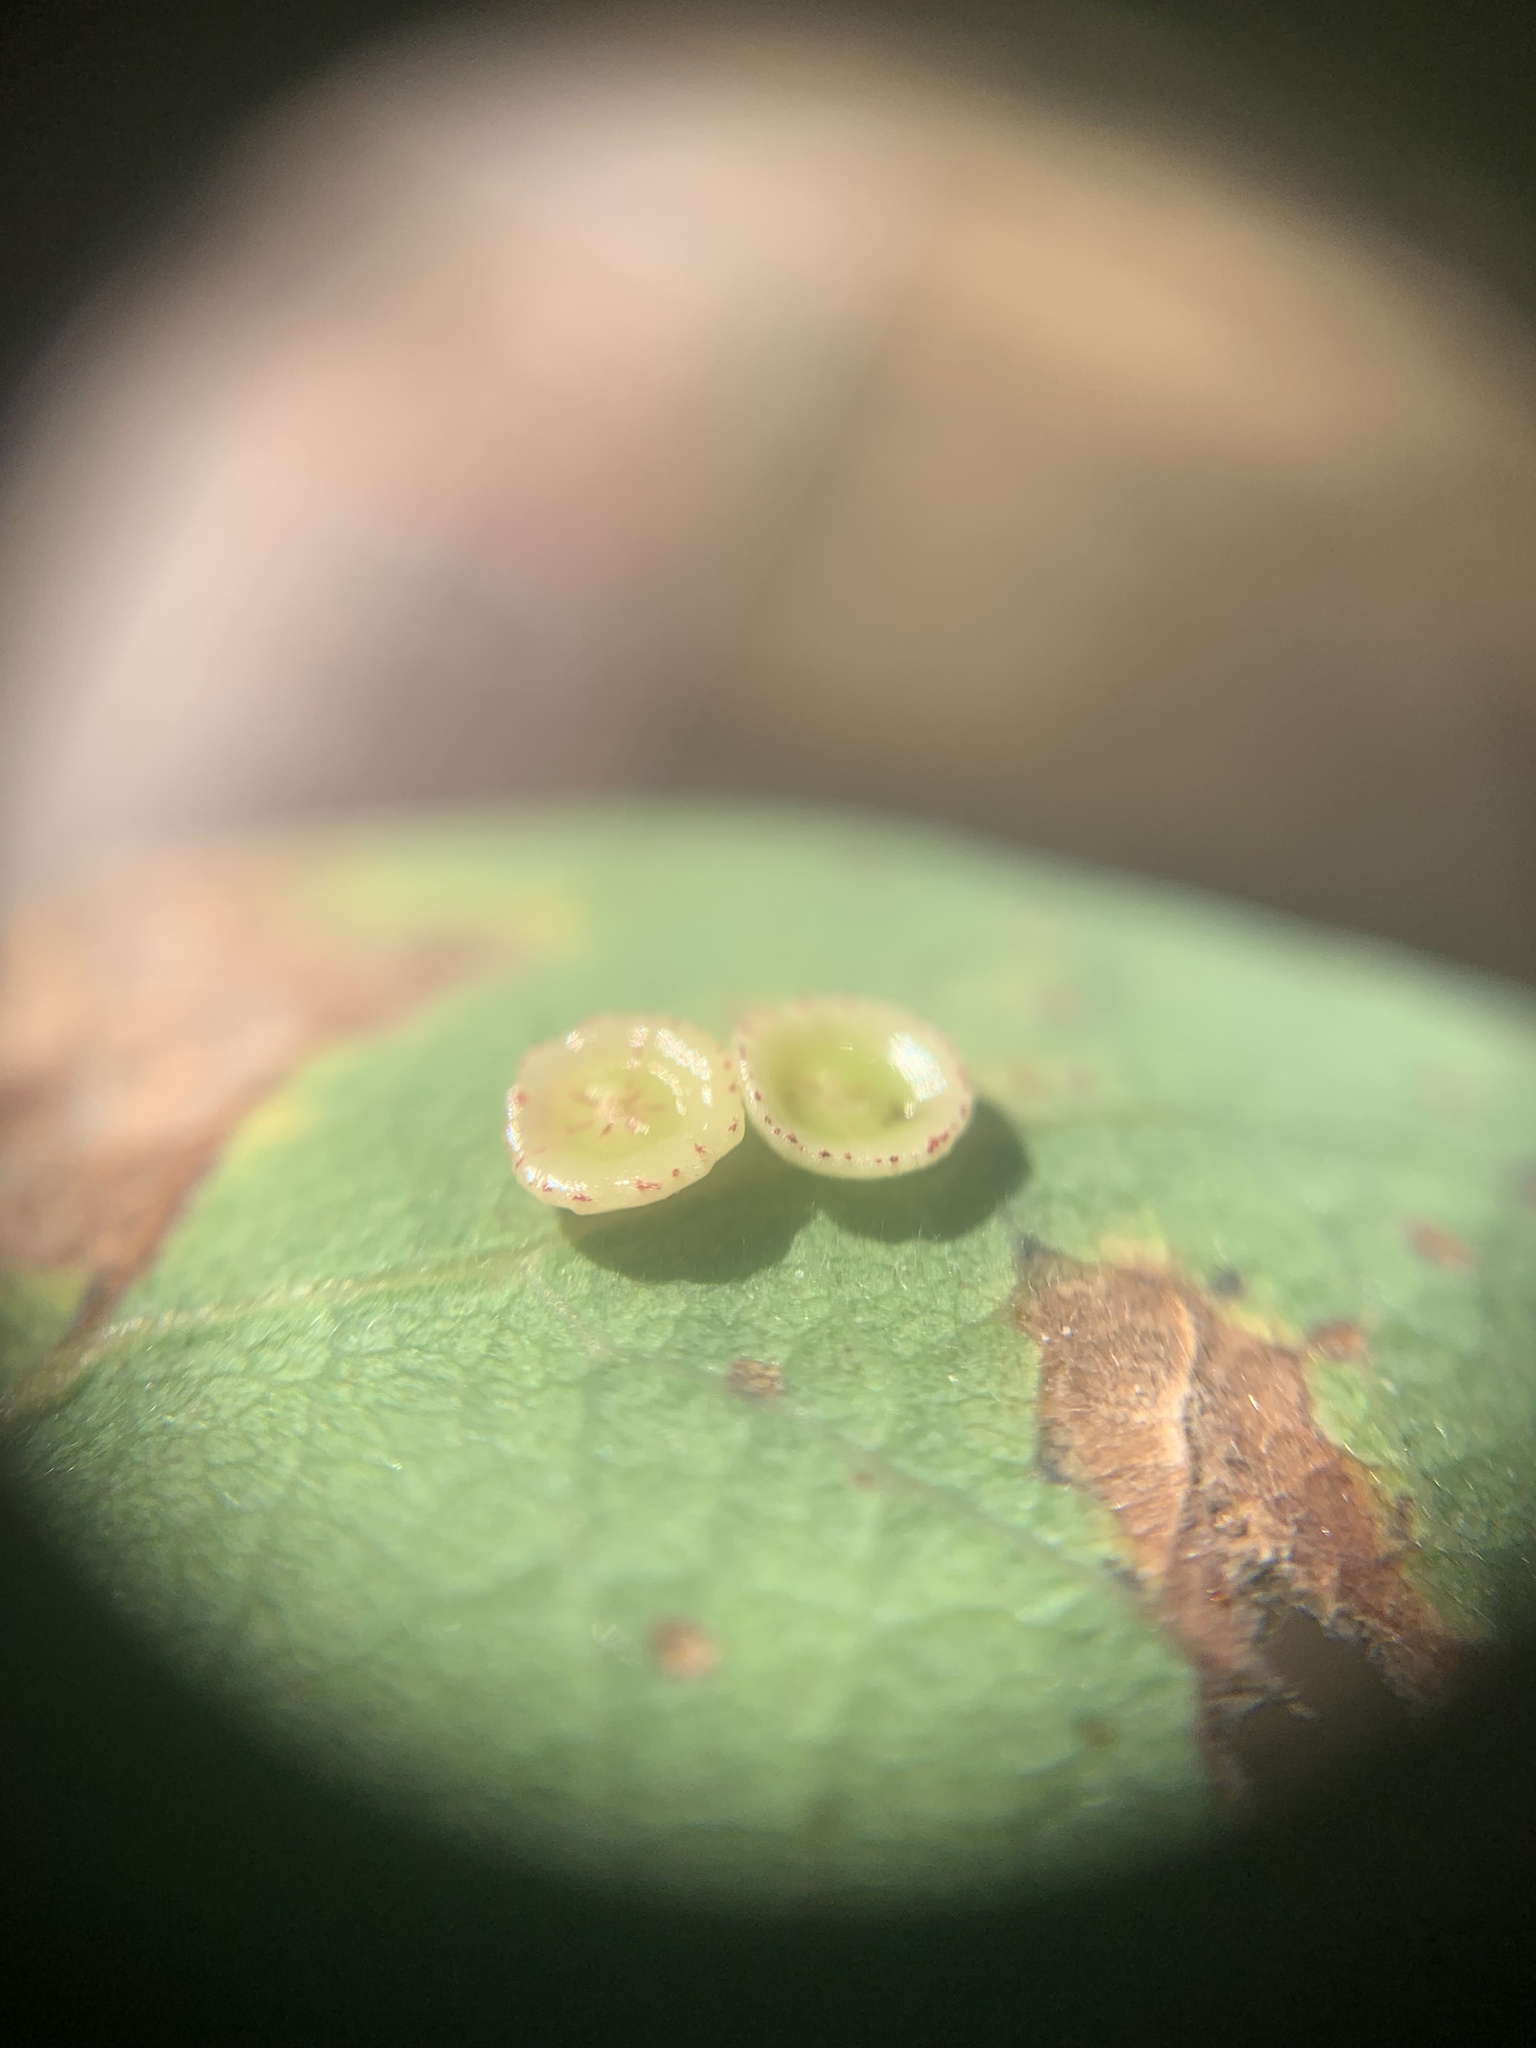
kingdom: Animalia
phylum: Arthropoda
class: Insecta
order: Hymenoptera
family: Cynipidae
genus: Andricus
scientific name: Andricus
